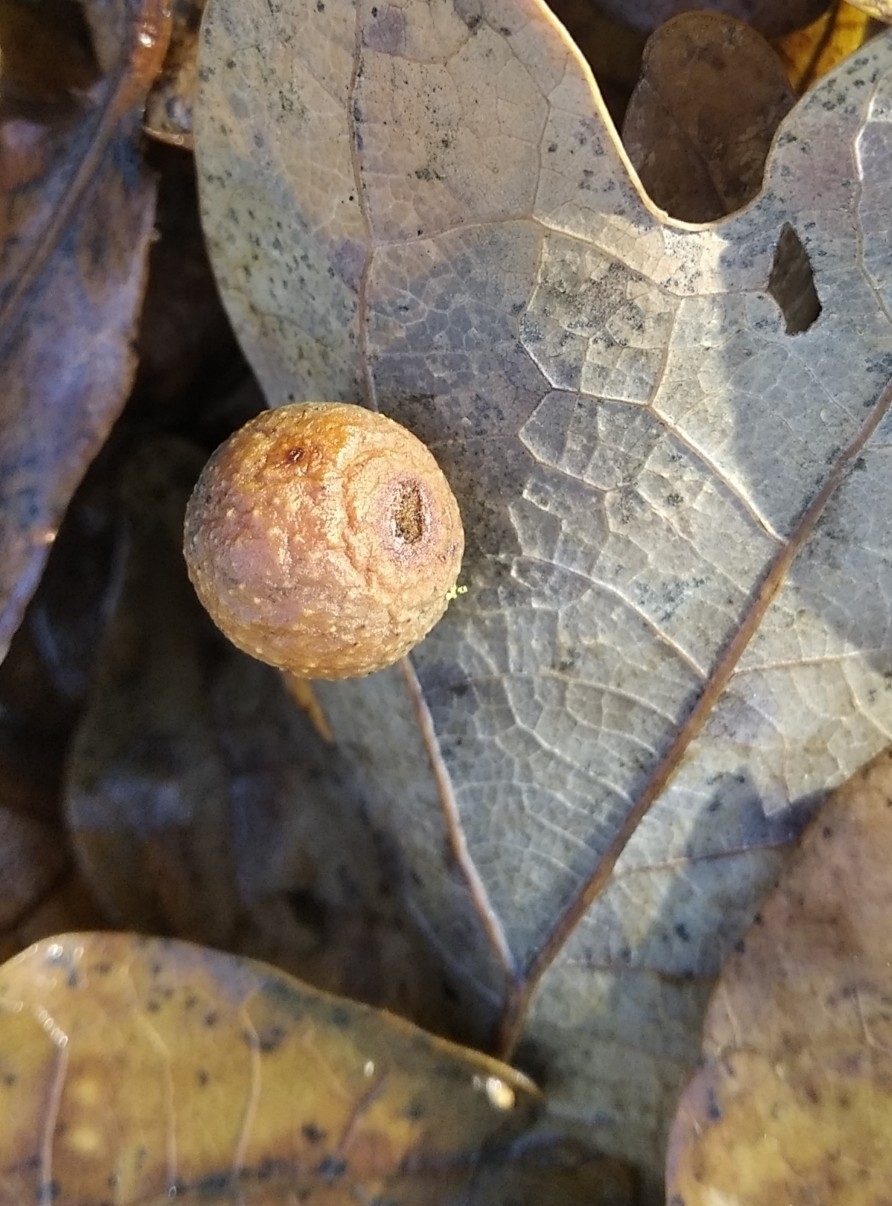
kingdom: Animalia
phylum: Arthropoda
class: Insecta
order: Hymenoptera
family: Cynipidae
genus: Cynips
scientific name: Cynips quercusfolii
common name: Cherry gall
